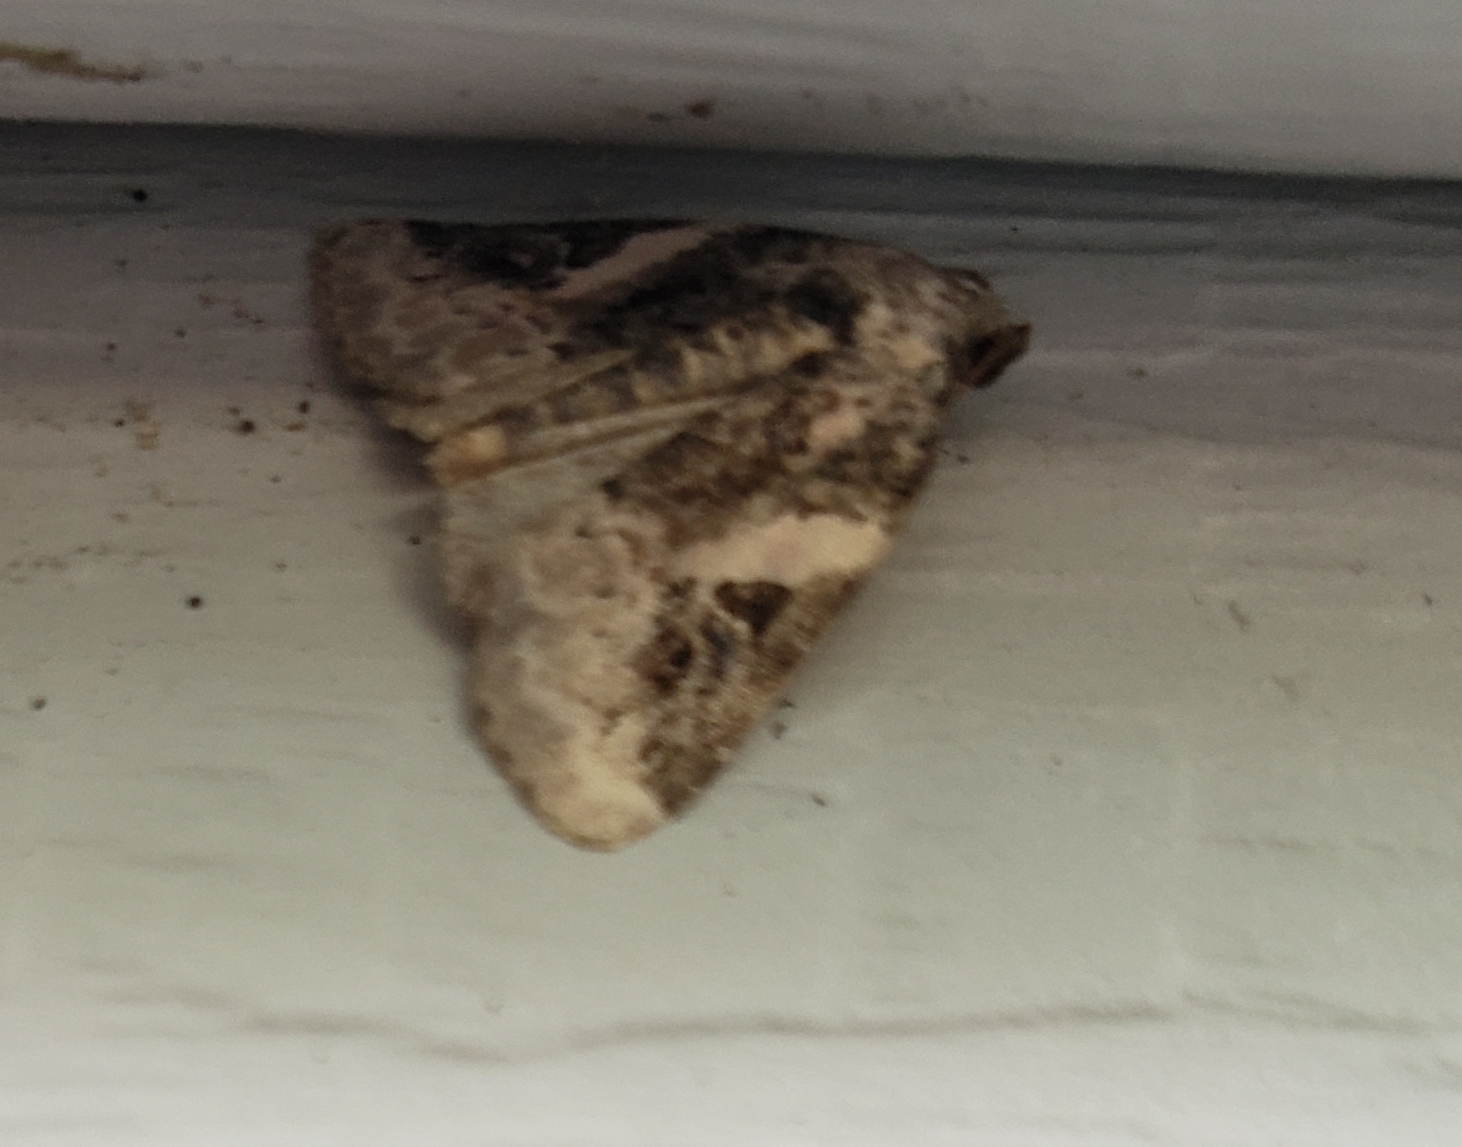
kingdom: Animalia
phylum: Arthropoda
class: Insecta
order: Lepidoptera
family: Noctuidae
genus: Pseudeustrotia
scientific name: Pseudeustrotia carneola
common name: Pink-barred lithacodia moth
